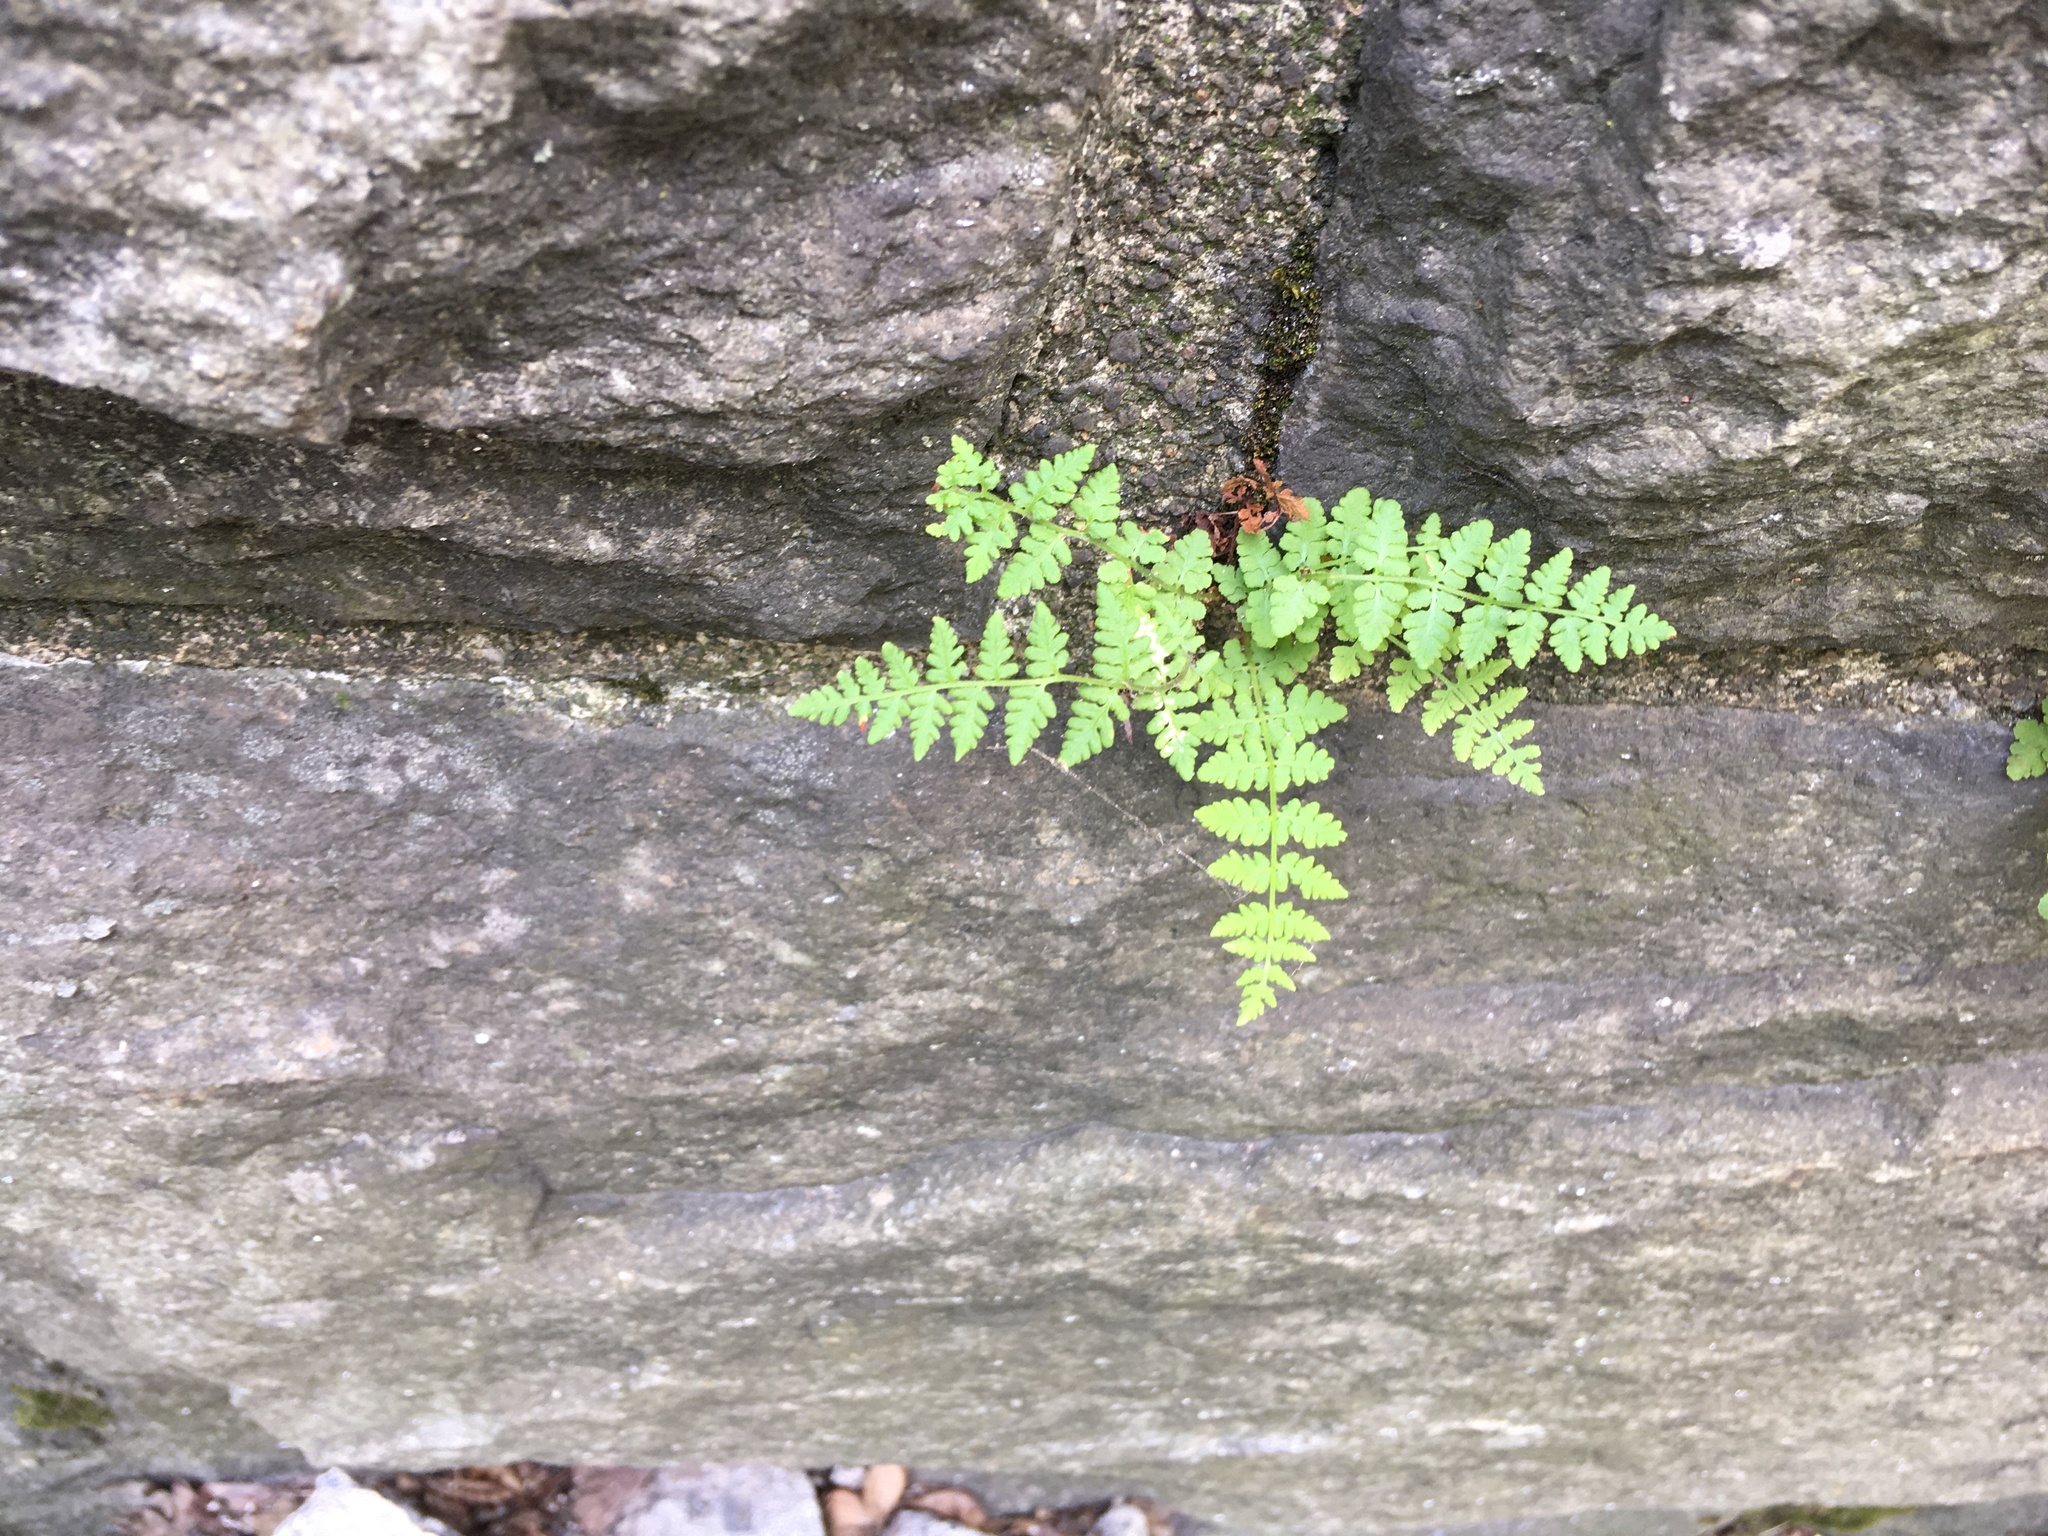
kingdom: Plantae
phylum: Tracheophyta
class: Polypodiopsida
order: Polypodiales
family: Woodsiaceae
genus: Physematium
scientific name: Physematium obtusum
